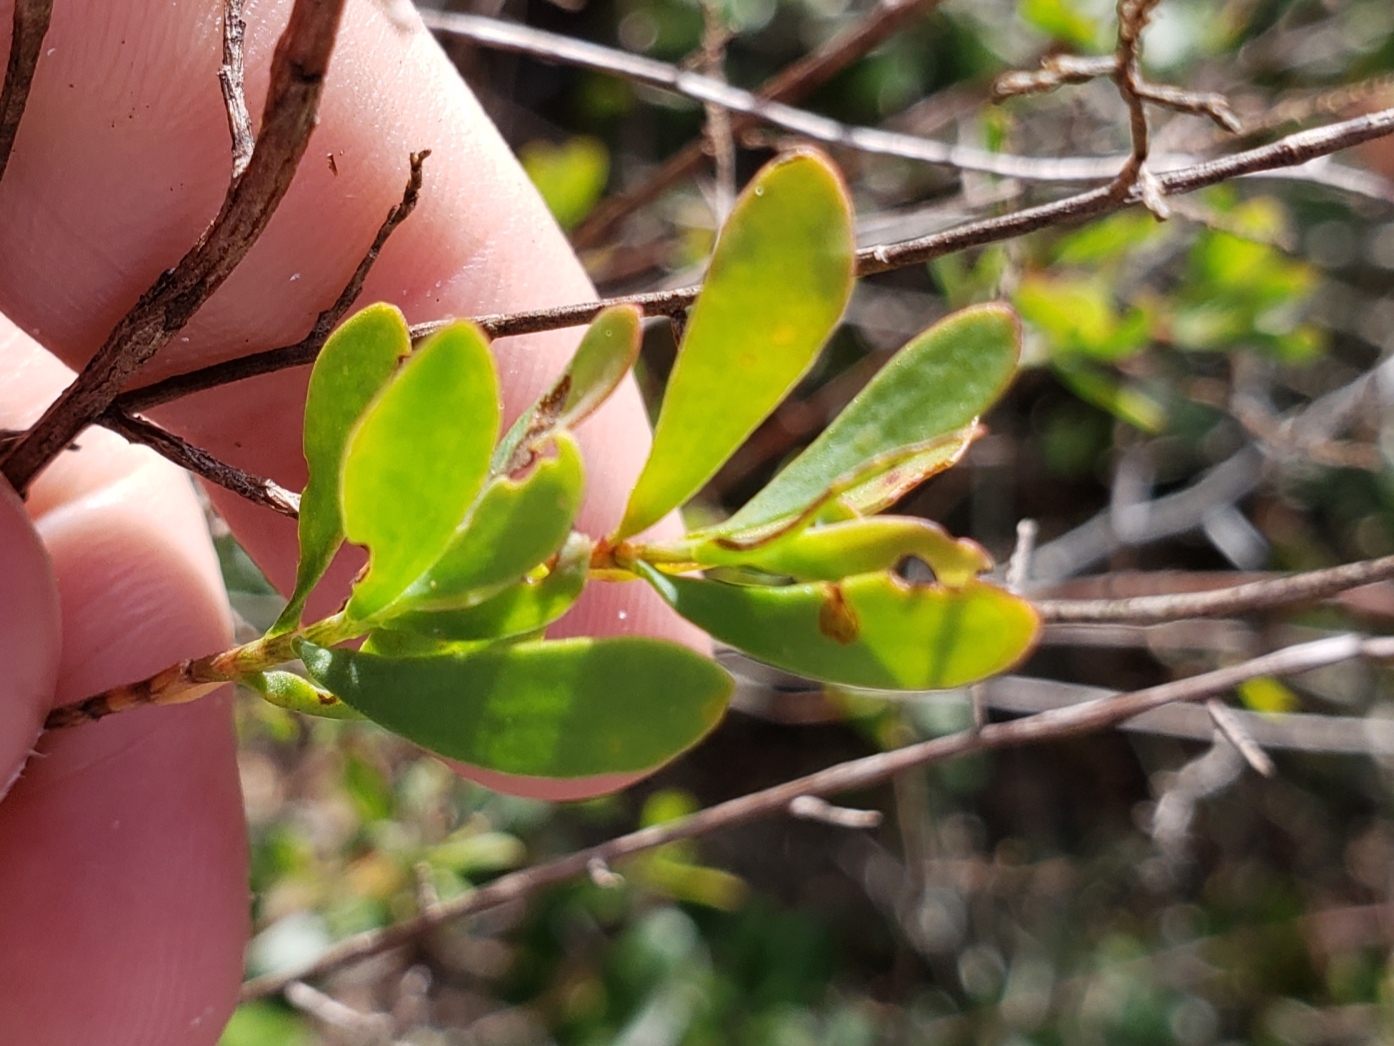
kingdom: Plantae
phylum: Tracheophyta
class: Magnoliopsida
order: Caryophyllales
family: Polygonaceae
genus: Polygonella
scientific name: Polygonella polygama
